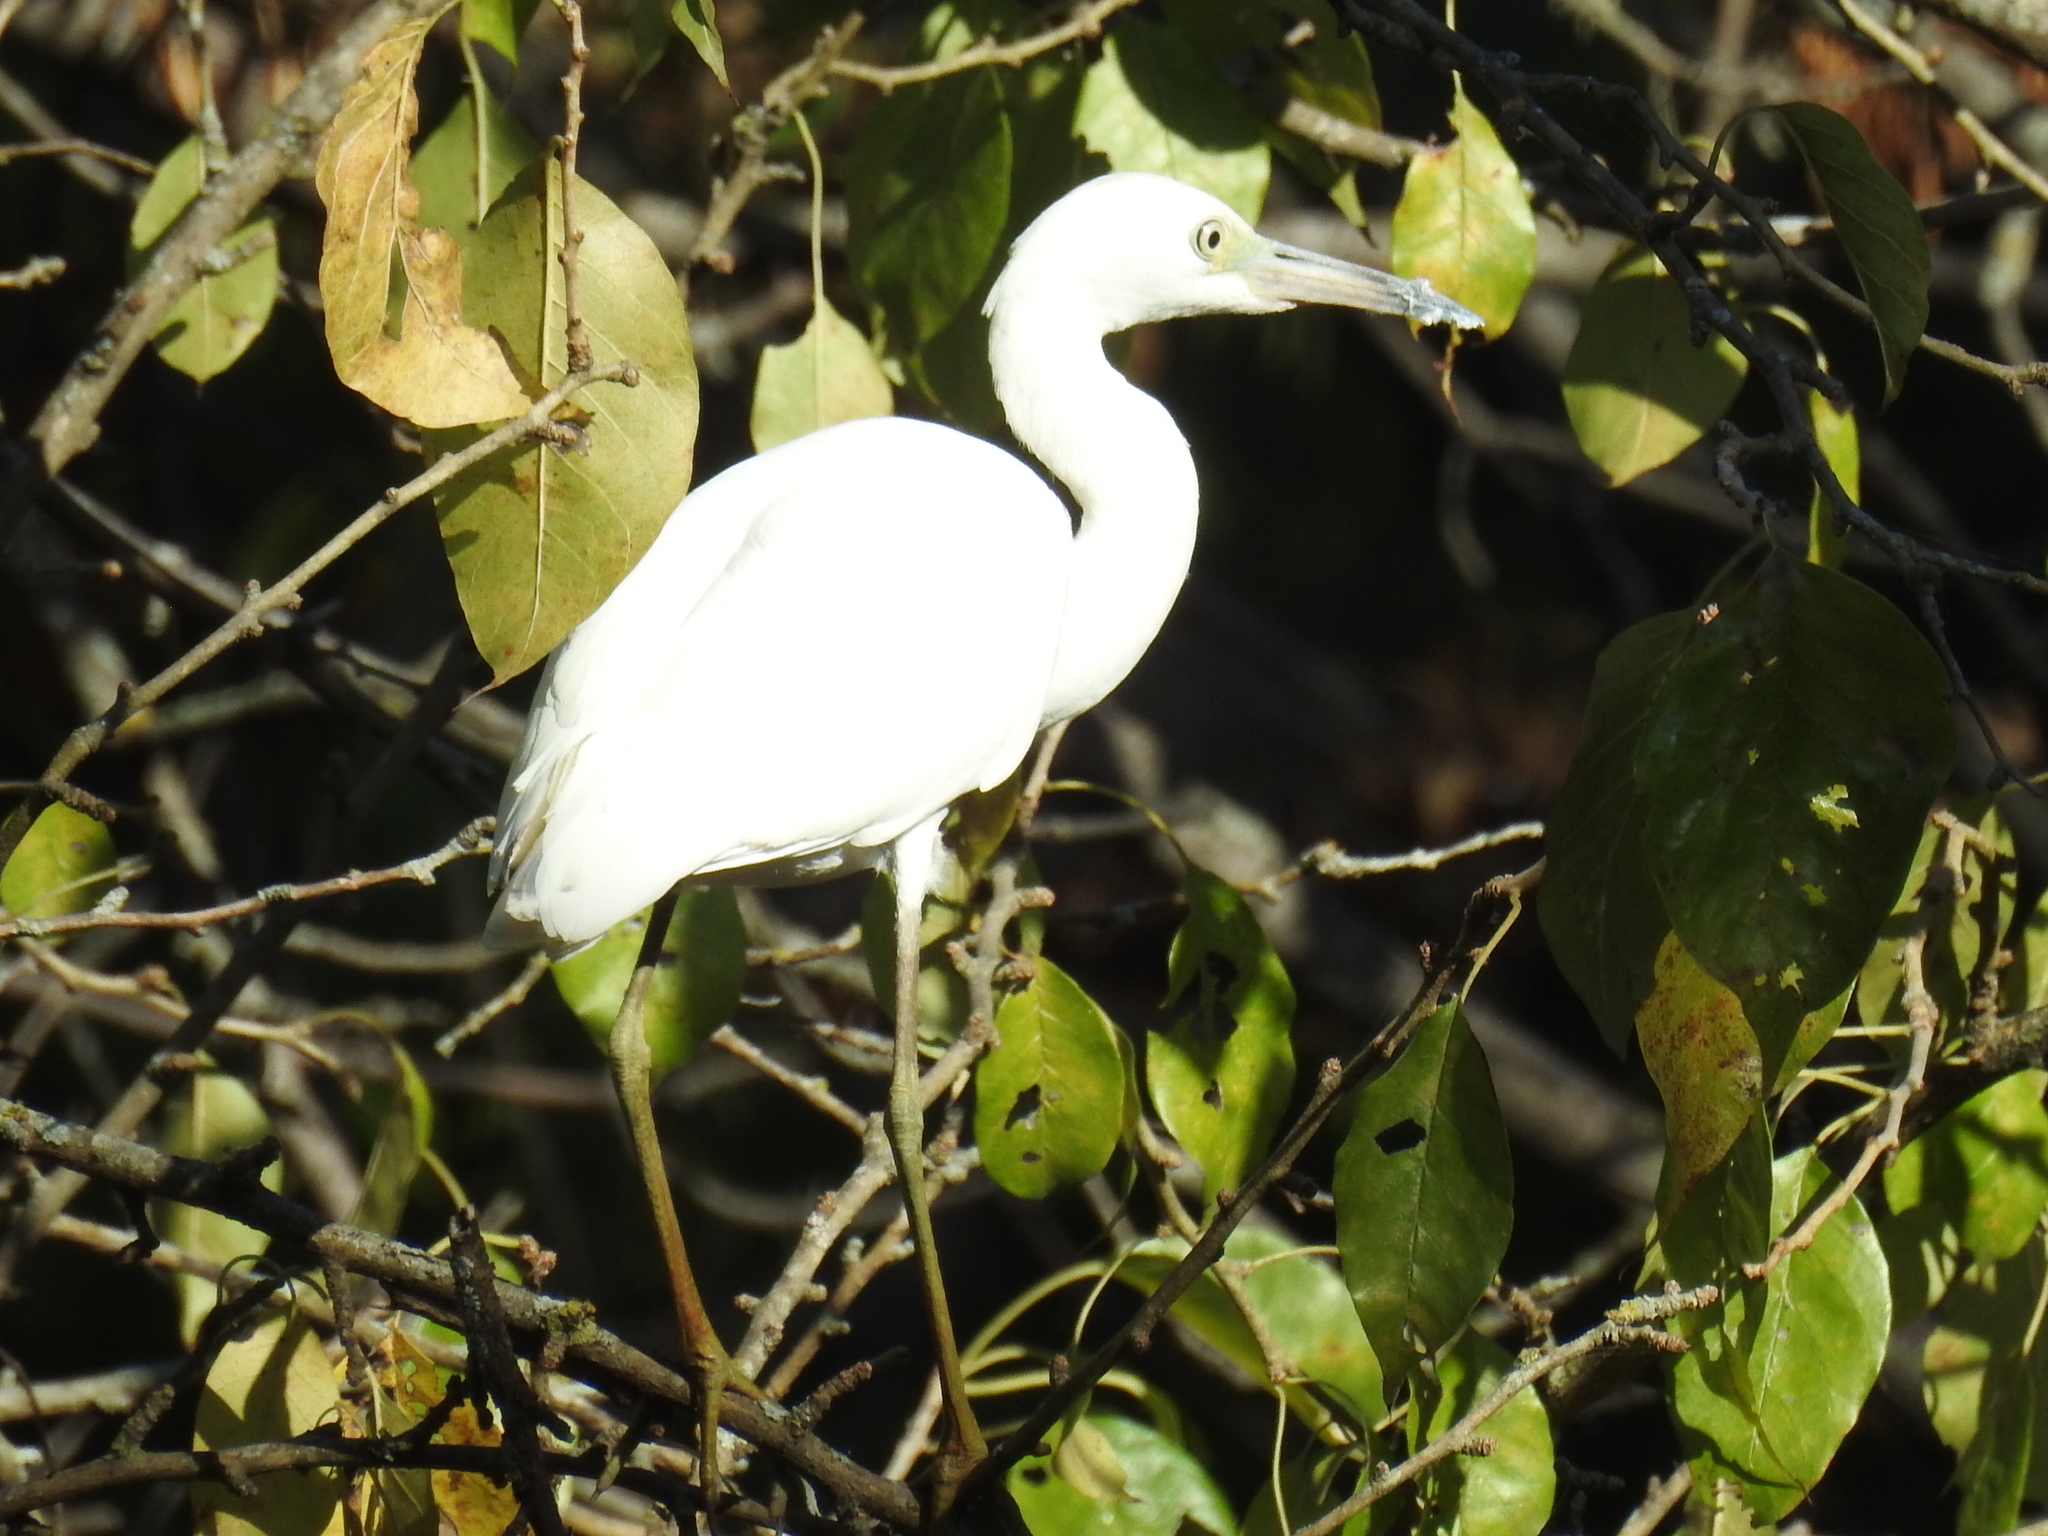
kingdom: Animalia
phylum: Chordata
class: Aves
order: Pelecaniformes
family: Ardeidae
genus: Egretta
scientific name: Egretta caerulea
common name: Little blue heron
